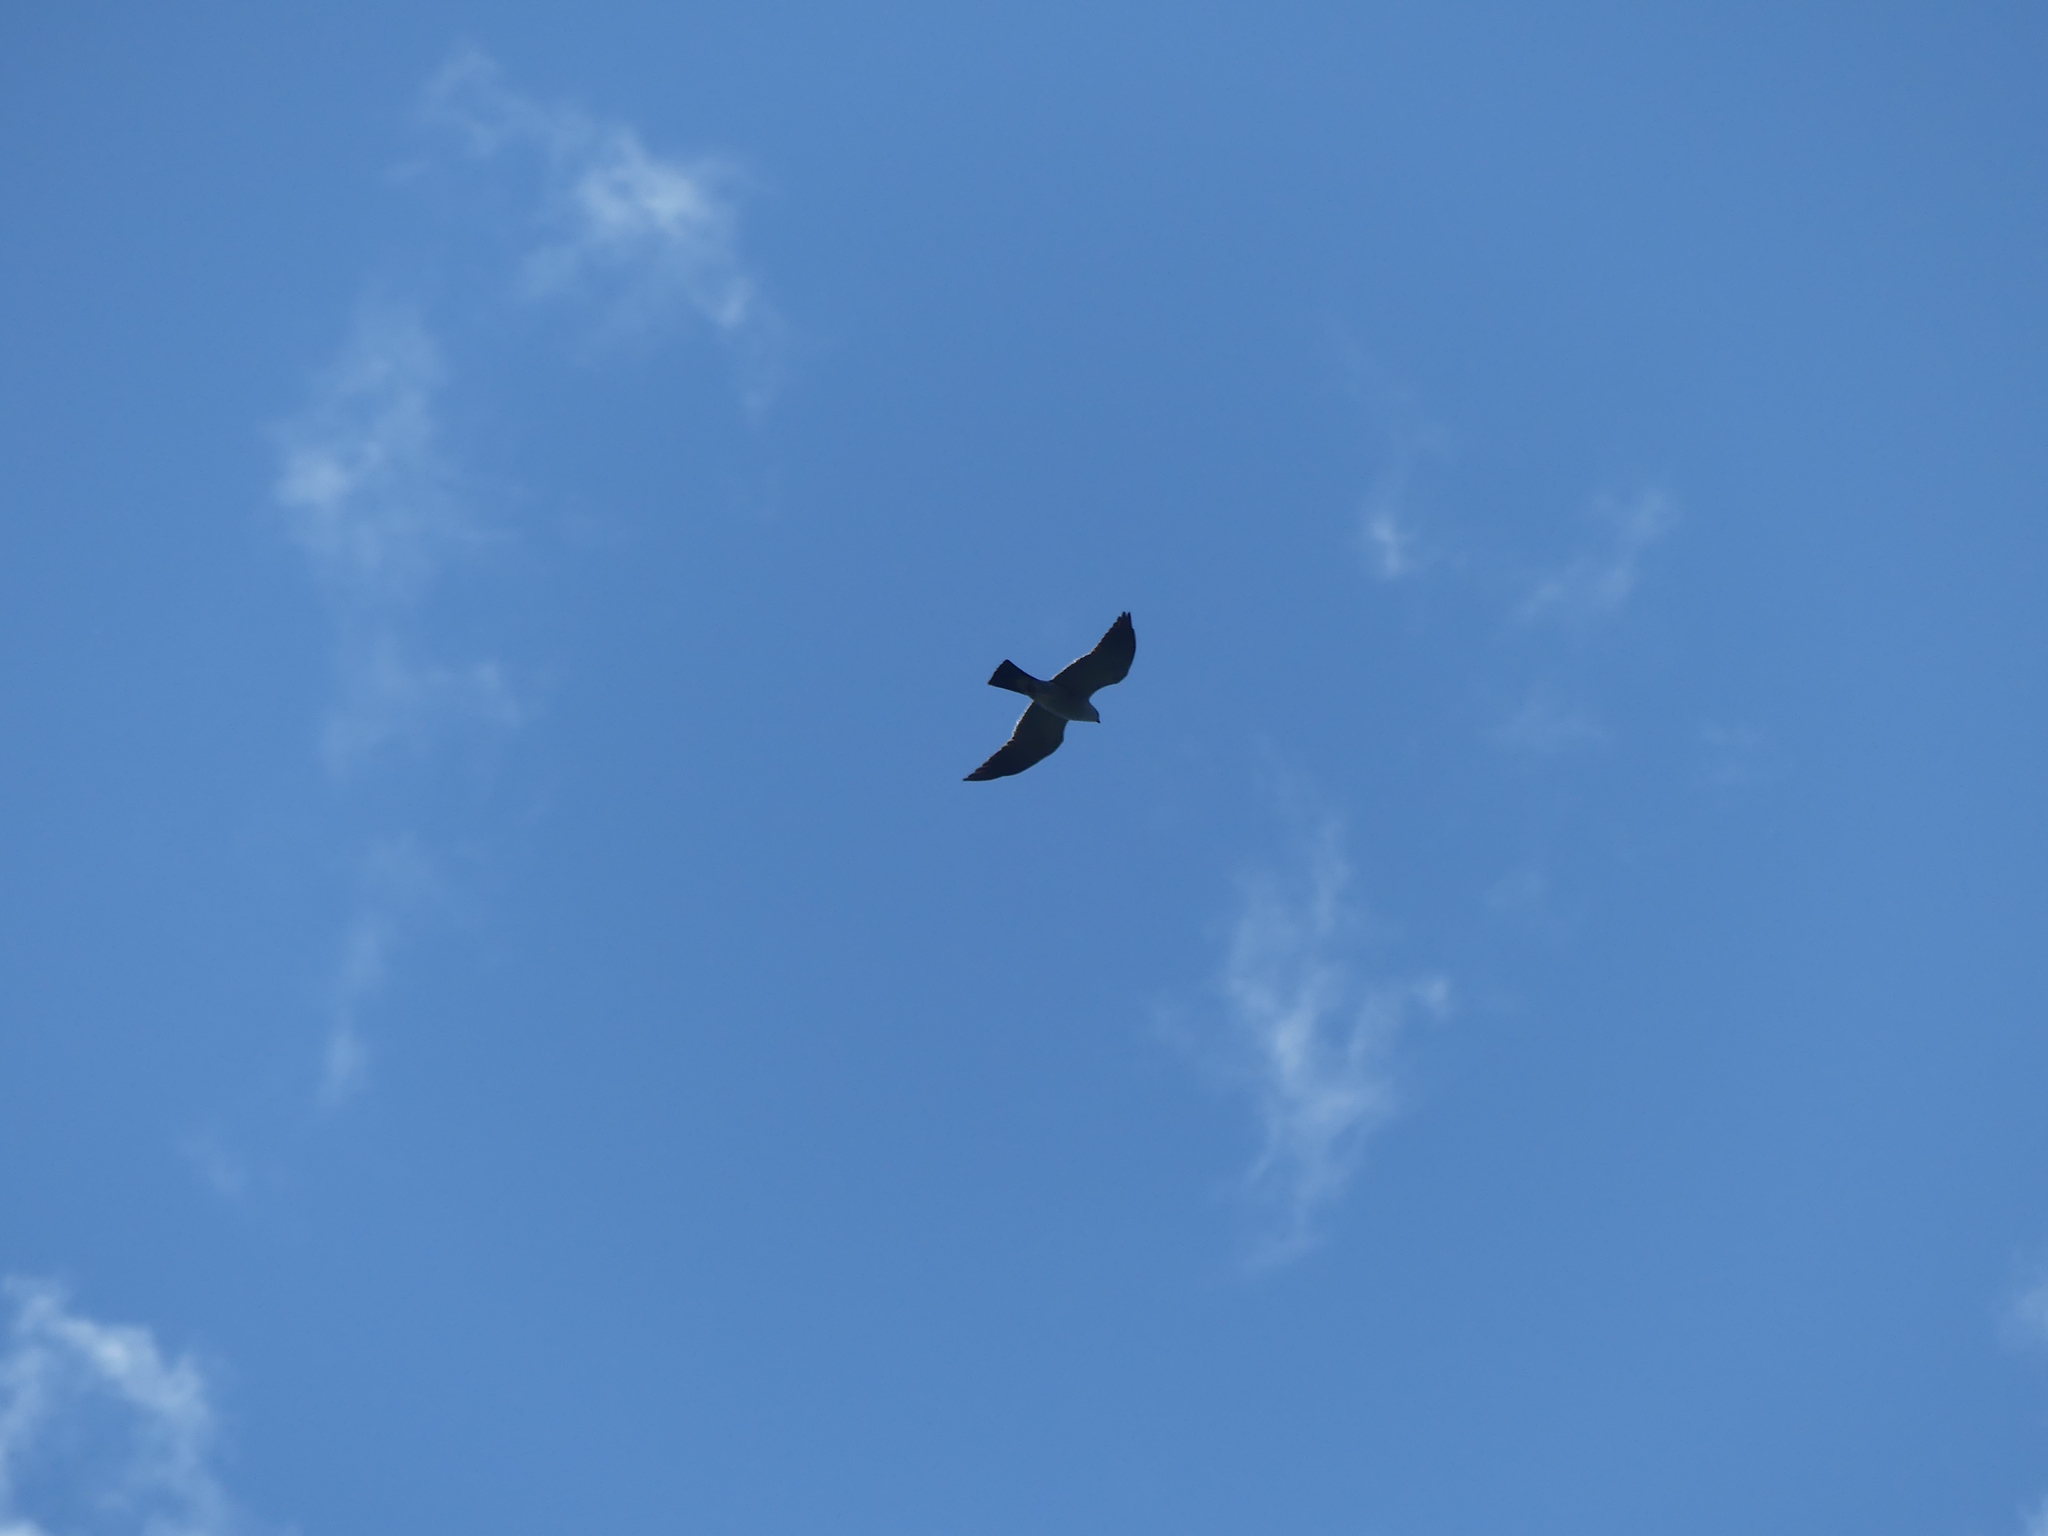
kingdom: Animalia
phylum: Chordata
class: Aves
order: Accipitriformes
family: Accipitridae
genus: Ictinia
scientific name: Ictinia mississippiensis
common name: Mississippi kite
